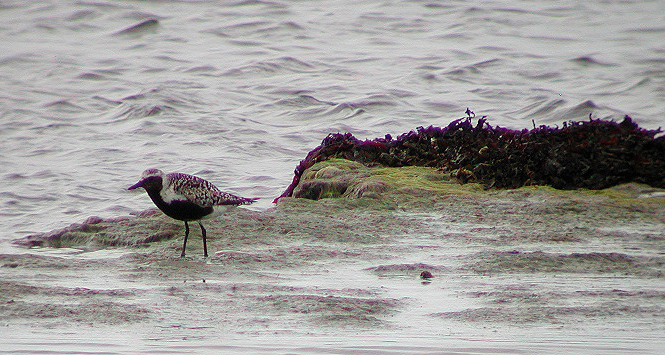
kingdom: Animalia
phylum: Chordata
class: Aves
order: Charadriiformes
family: Charadriidae
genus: Pluvialis
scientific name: Pluvialis squatarola
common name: Grey plover
